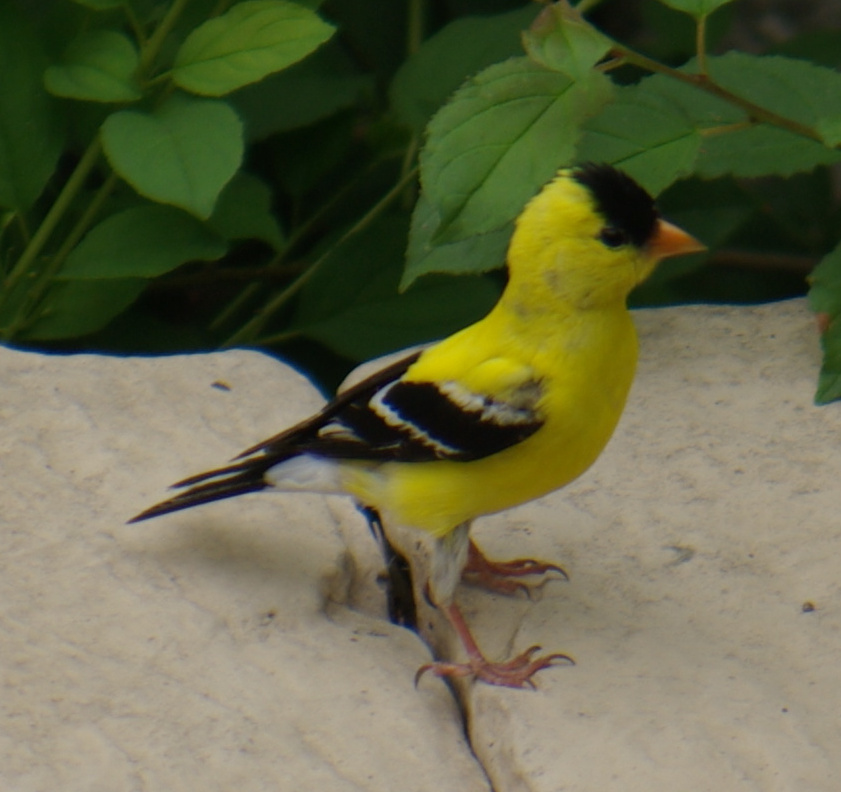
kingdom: Animalia
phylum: Chordata
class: Aves
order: Passeriformes
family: Fringillidae
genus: Spinus
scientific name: Spinus tristis
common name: American goldfinch
